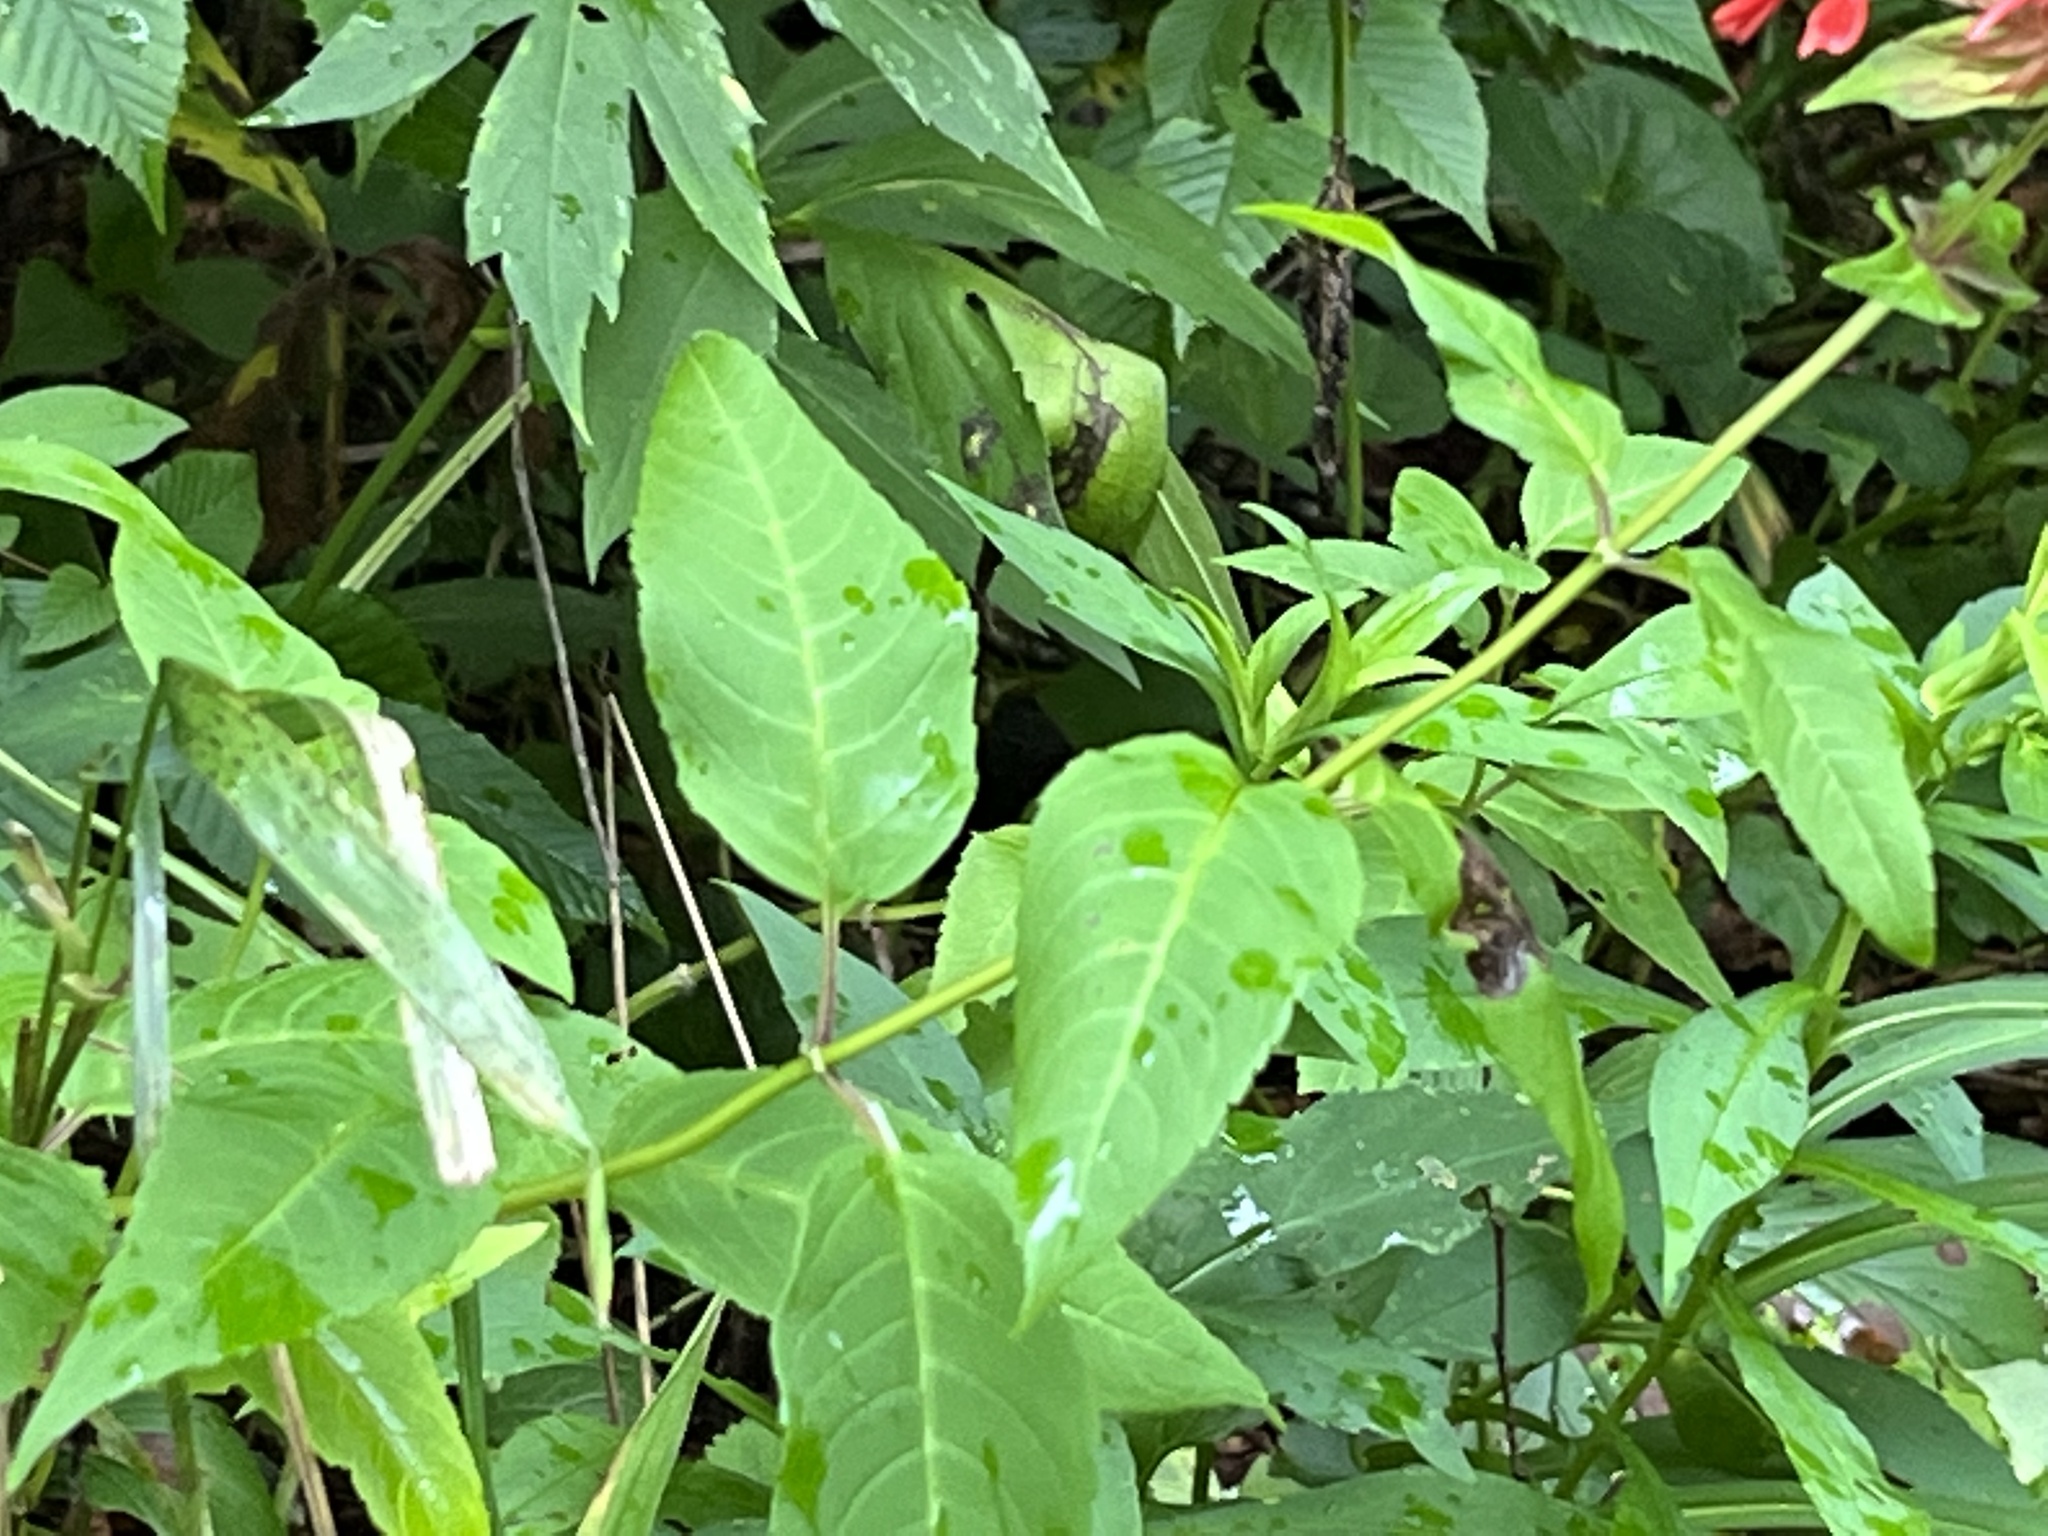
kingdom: Plantae
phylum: Tracheophyta
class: Magnoliopsida
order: Lamiales
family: Lamiaceae
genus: Monarda
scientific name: Monarda didyma
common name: Beebalm
